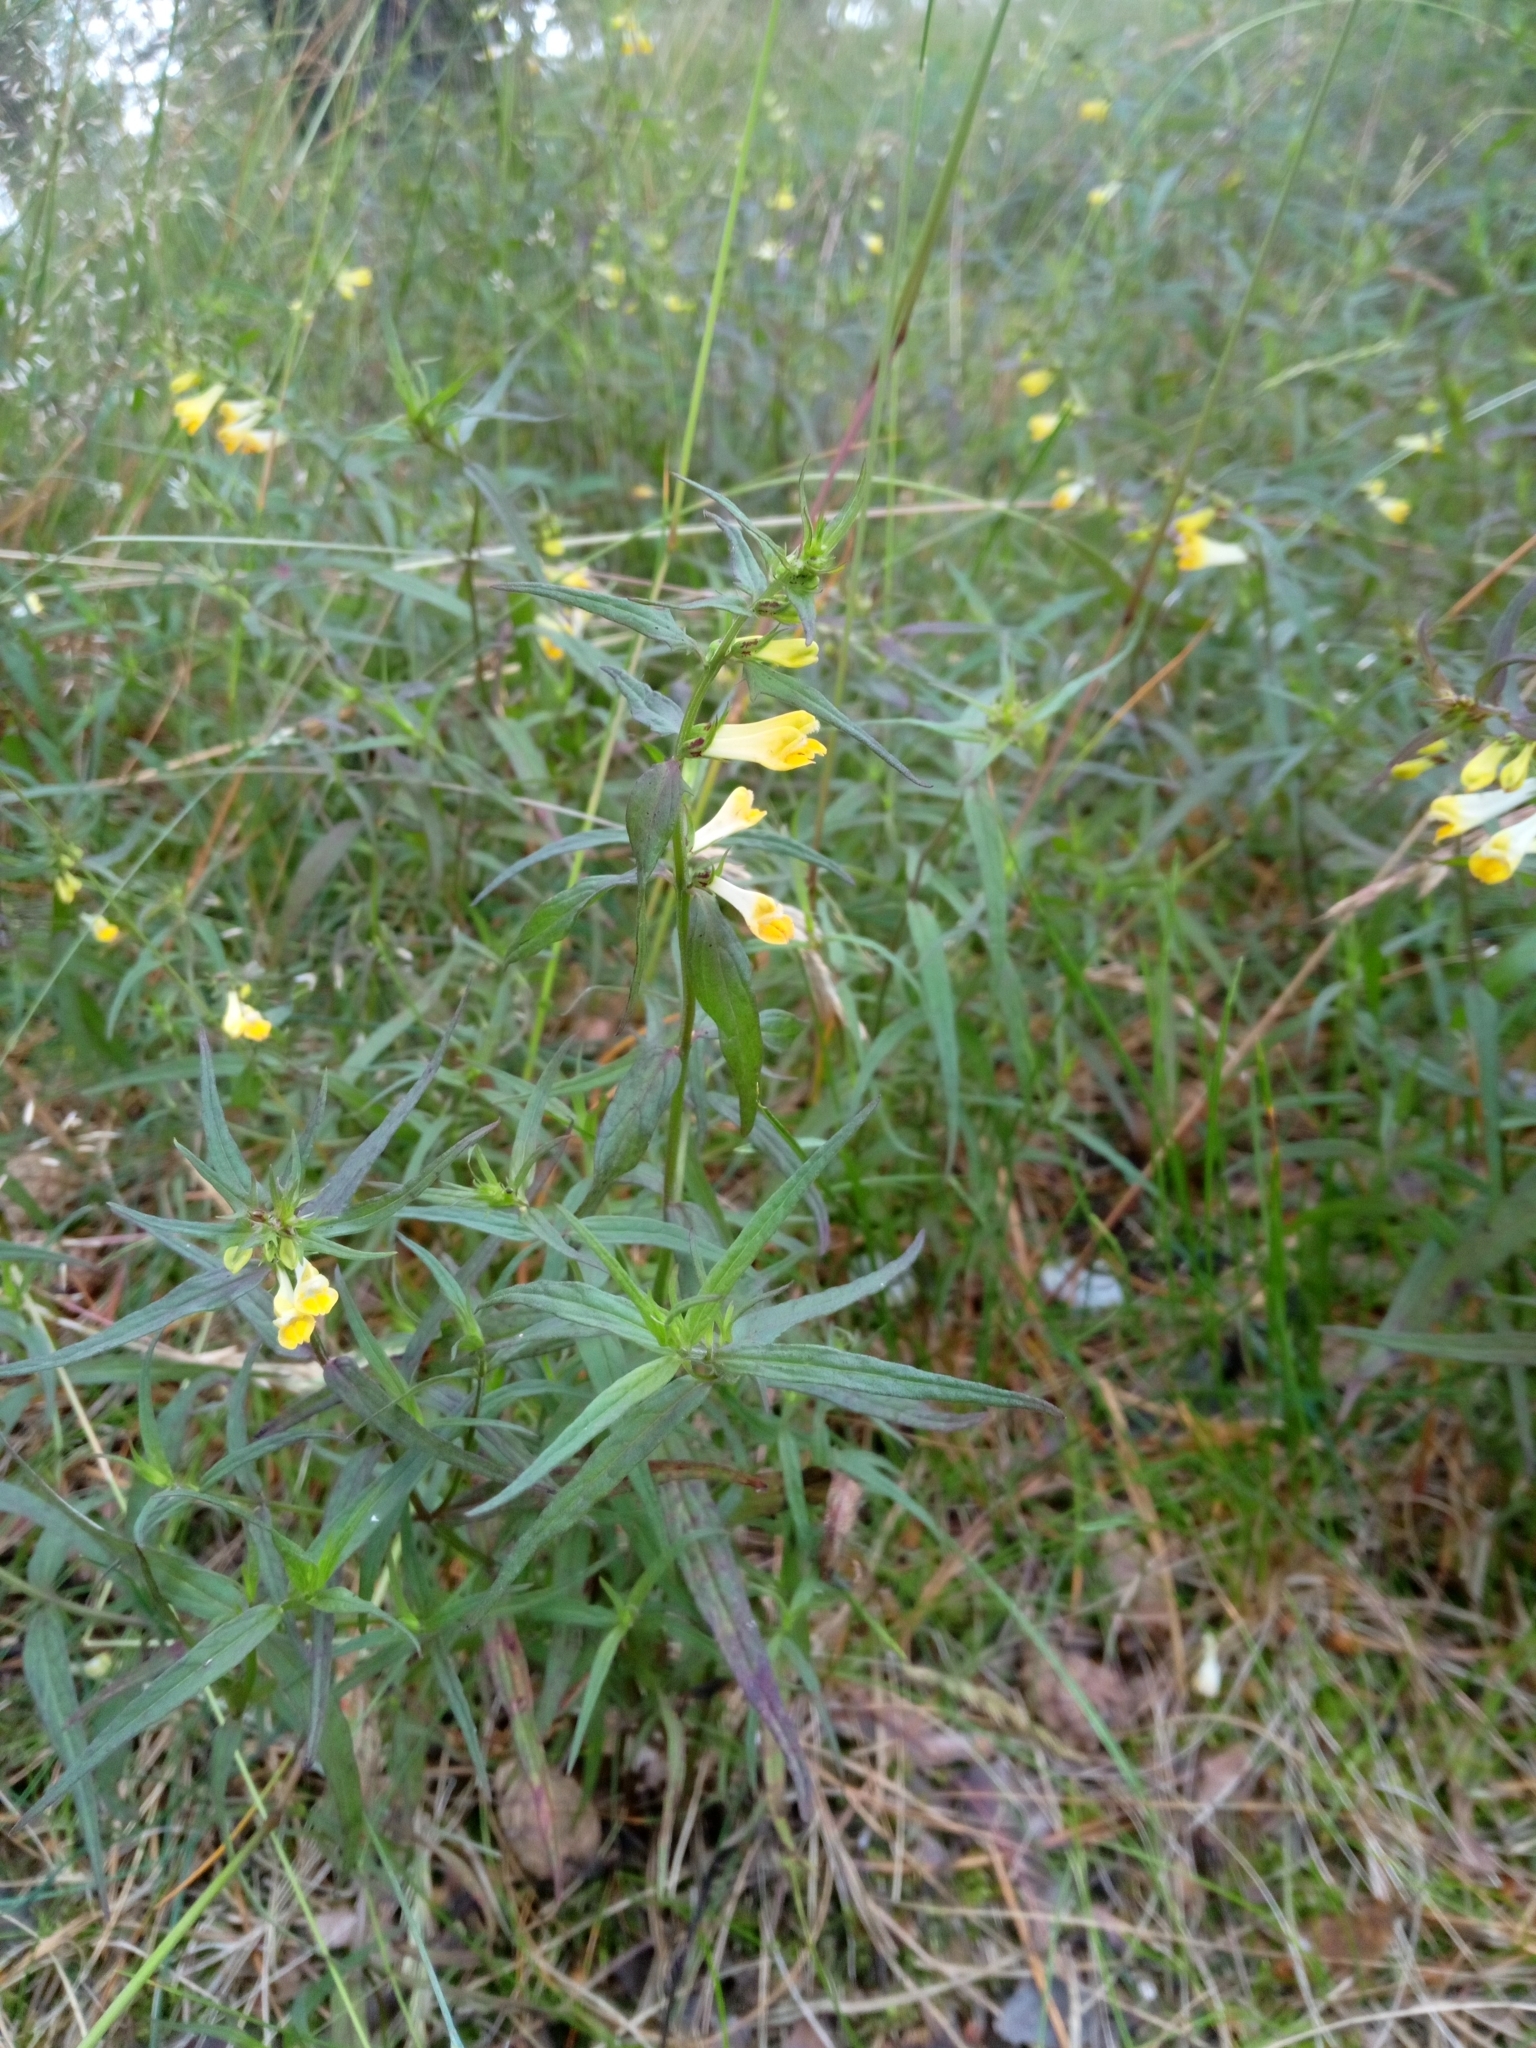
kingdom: Plantae
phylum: Tracheophyta
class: Magnoliopsida
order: Lamiales
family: Orobanchaceae
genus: Melampyrum
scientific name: Melampyrum pratense
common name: Common cow-wheat
